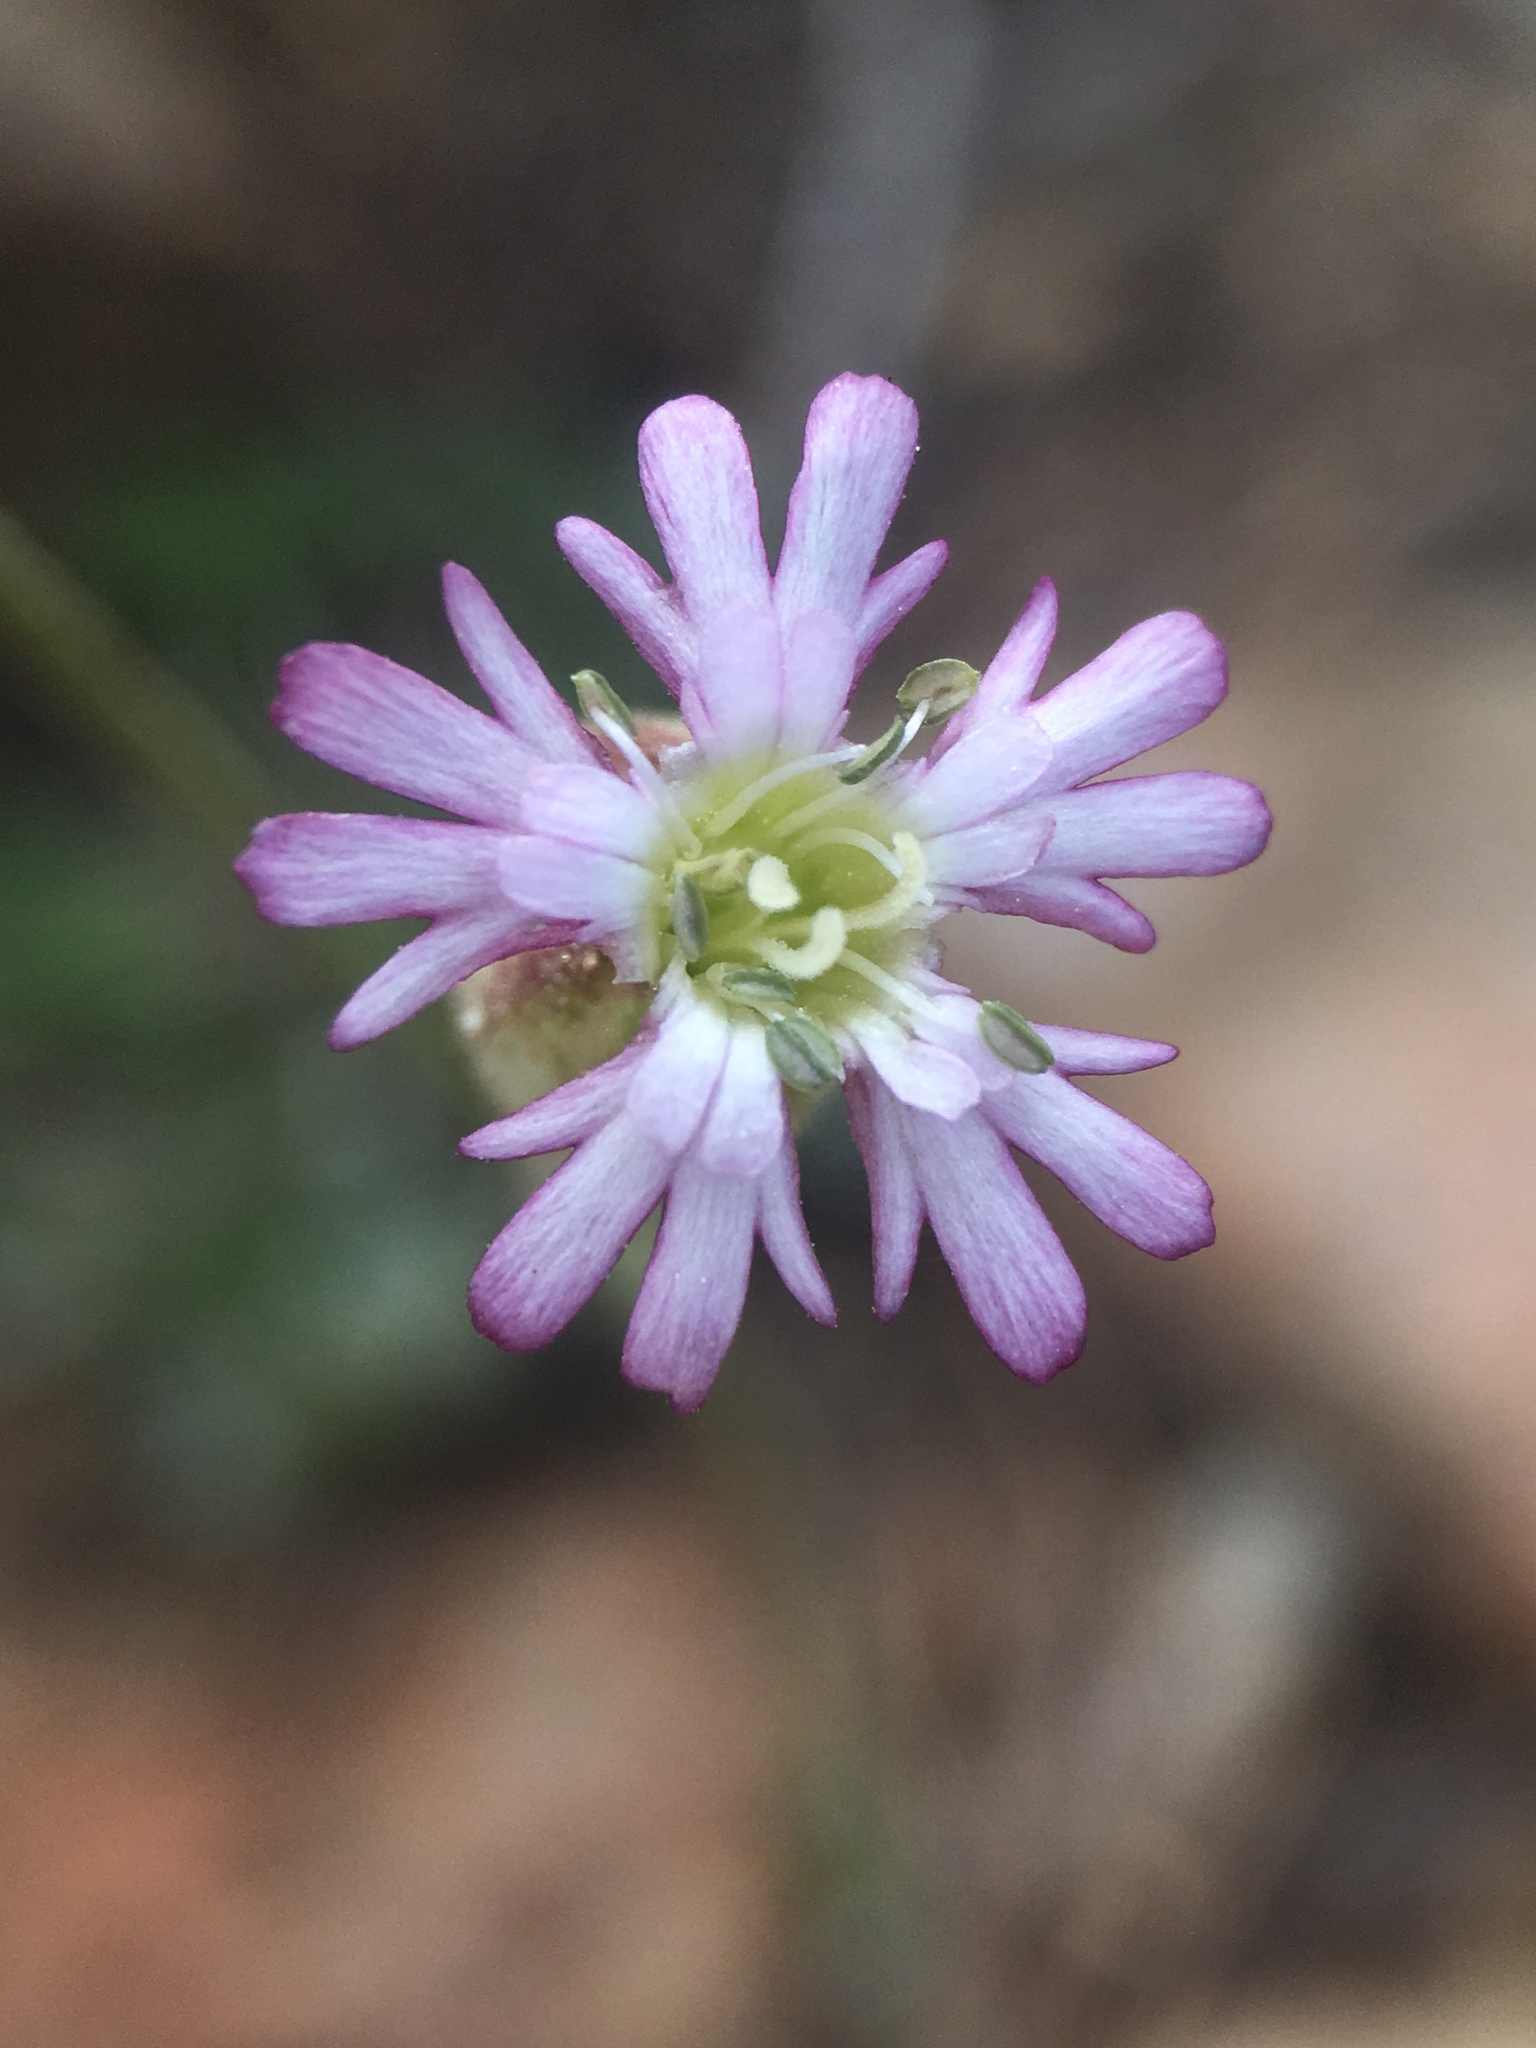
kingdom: Plantae
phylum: Tracheophyta
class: Magnoliopsida
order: Caryophyllales
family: Caryophyllaceae
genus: Silene
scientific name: Silene grayi
